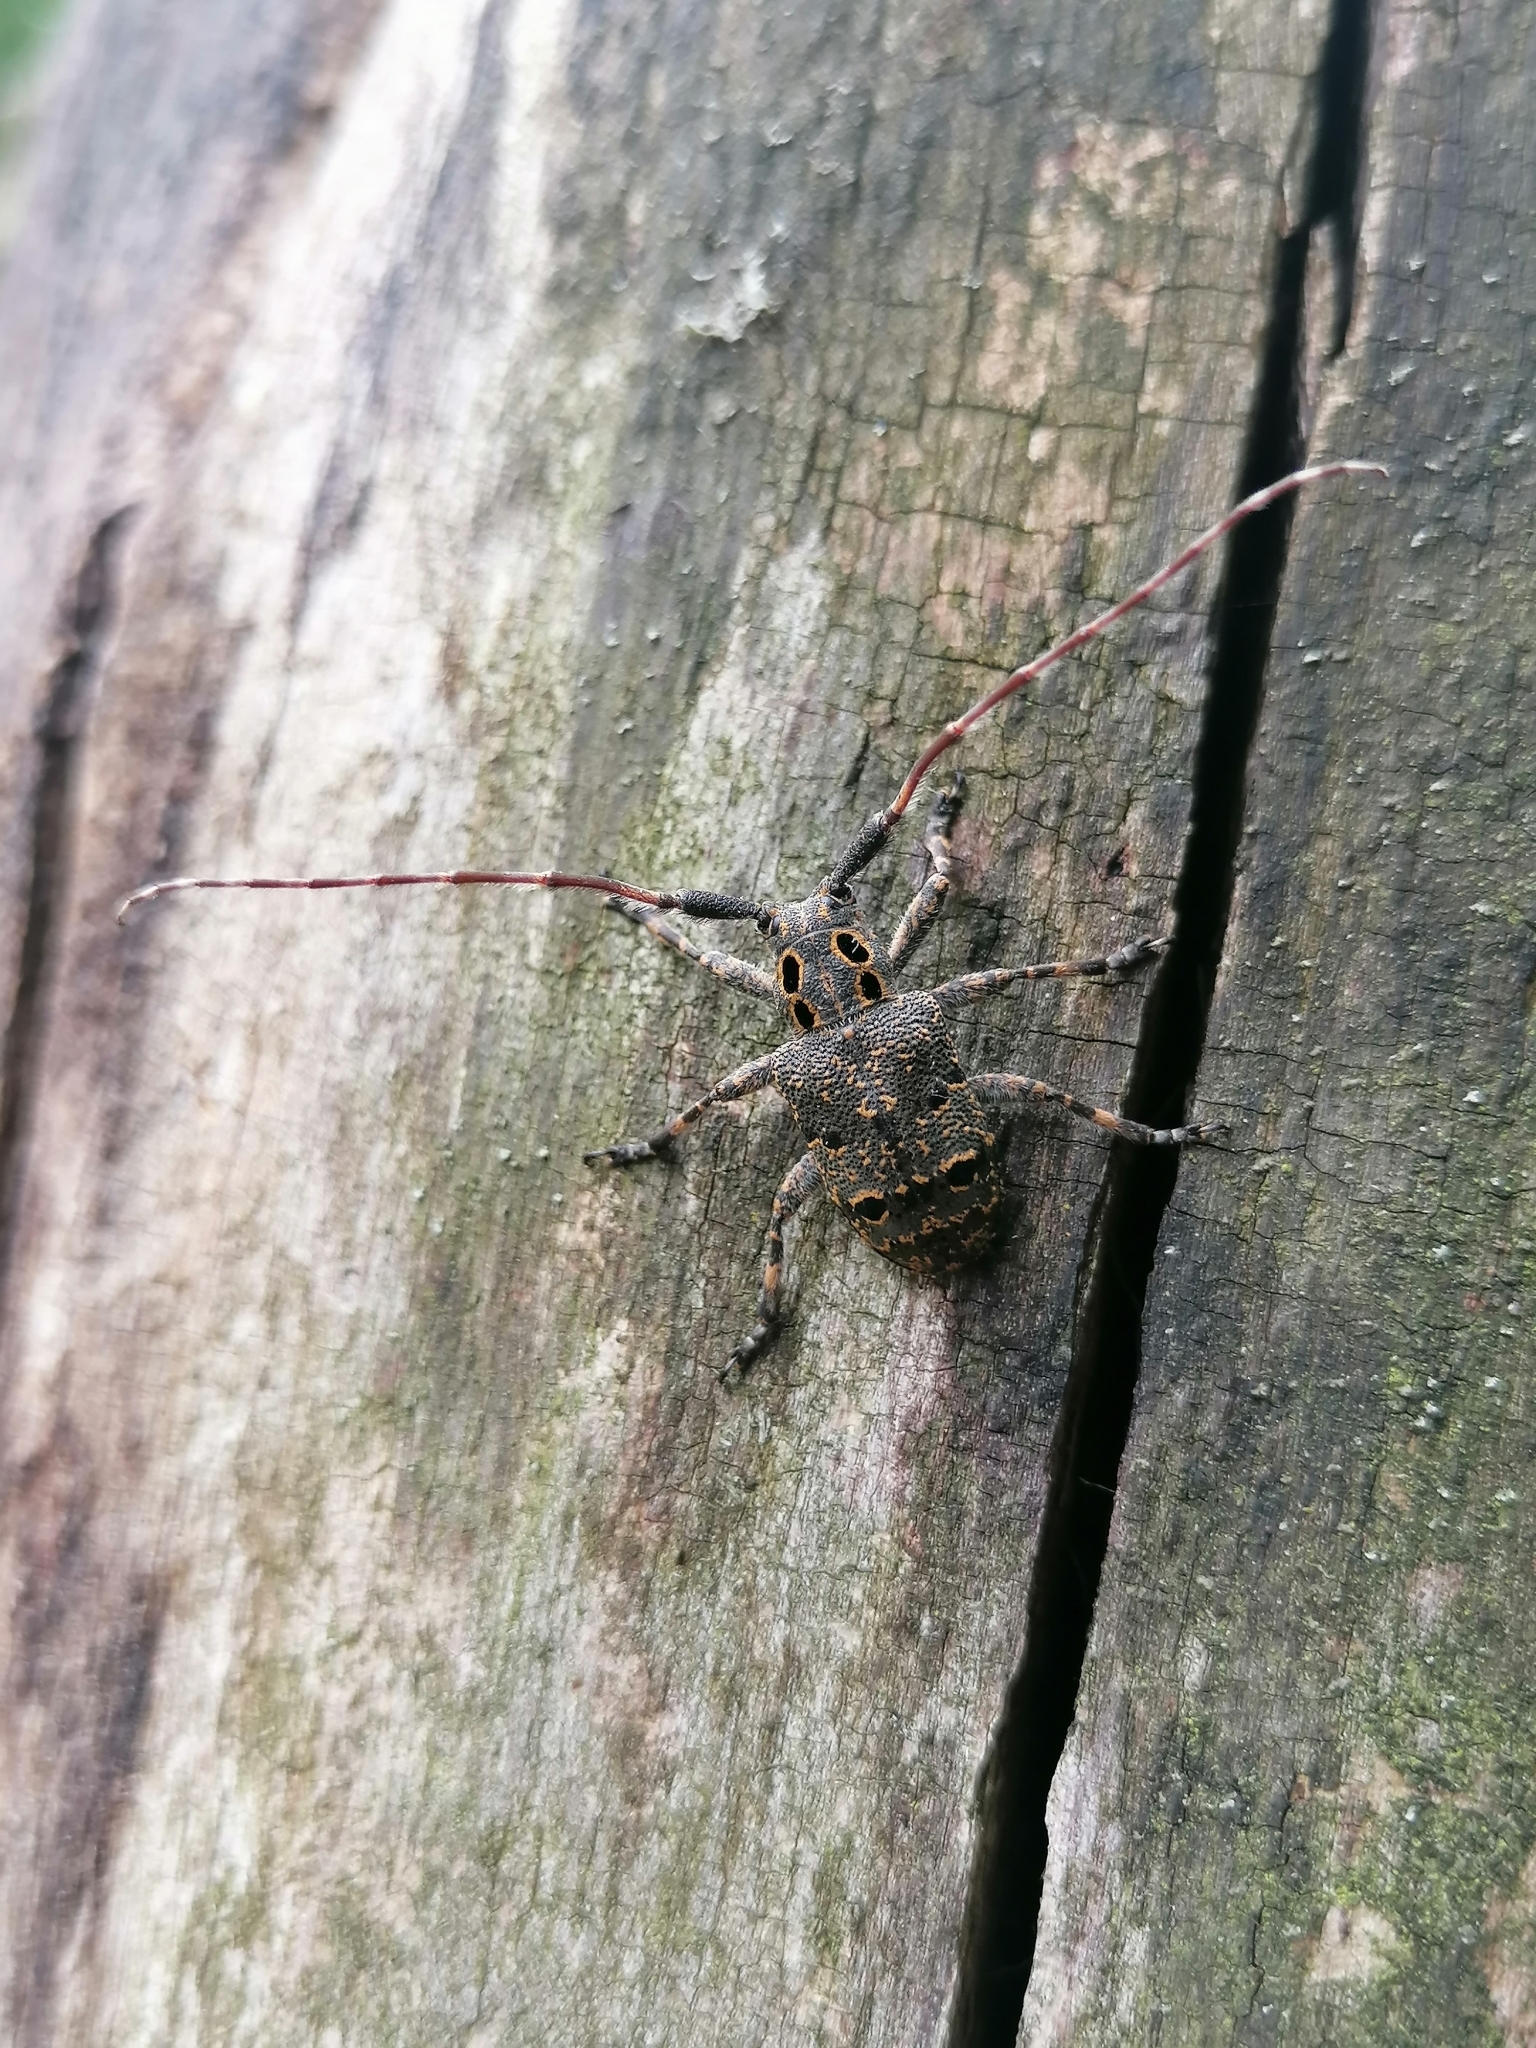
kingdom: Animalia
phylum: Arthropoda
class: Insecta
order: Coleoptera
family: Cerambycidae
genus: Mesosa
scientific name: Mesosa curculionoides
